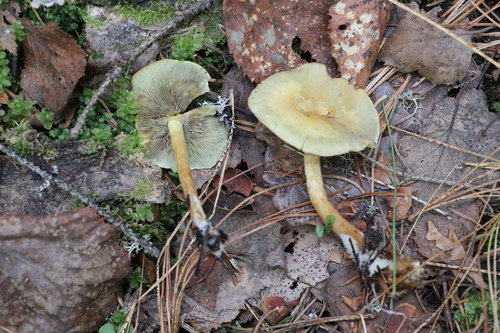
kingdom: Fungi
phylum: Basidiomycota
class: Agaricomycetes
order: Agaricales
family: Strophariaceae
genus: Hypholoma
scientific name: Hypholoma fasciculare
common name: Sulphur tuft
